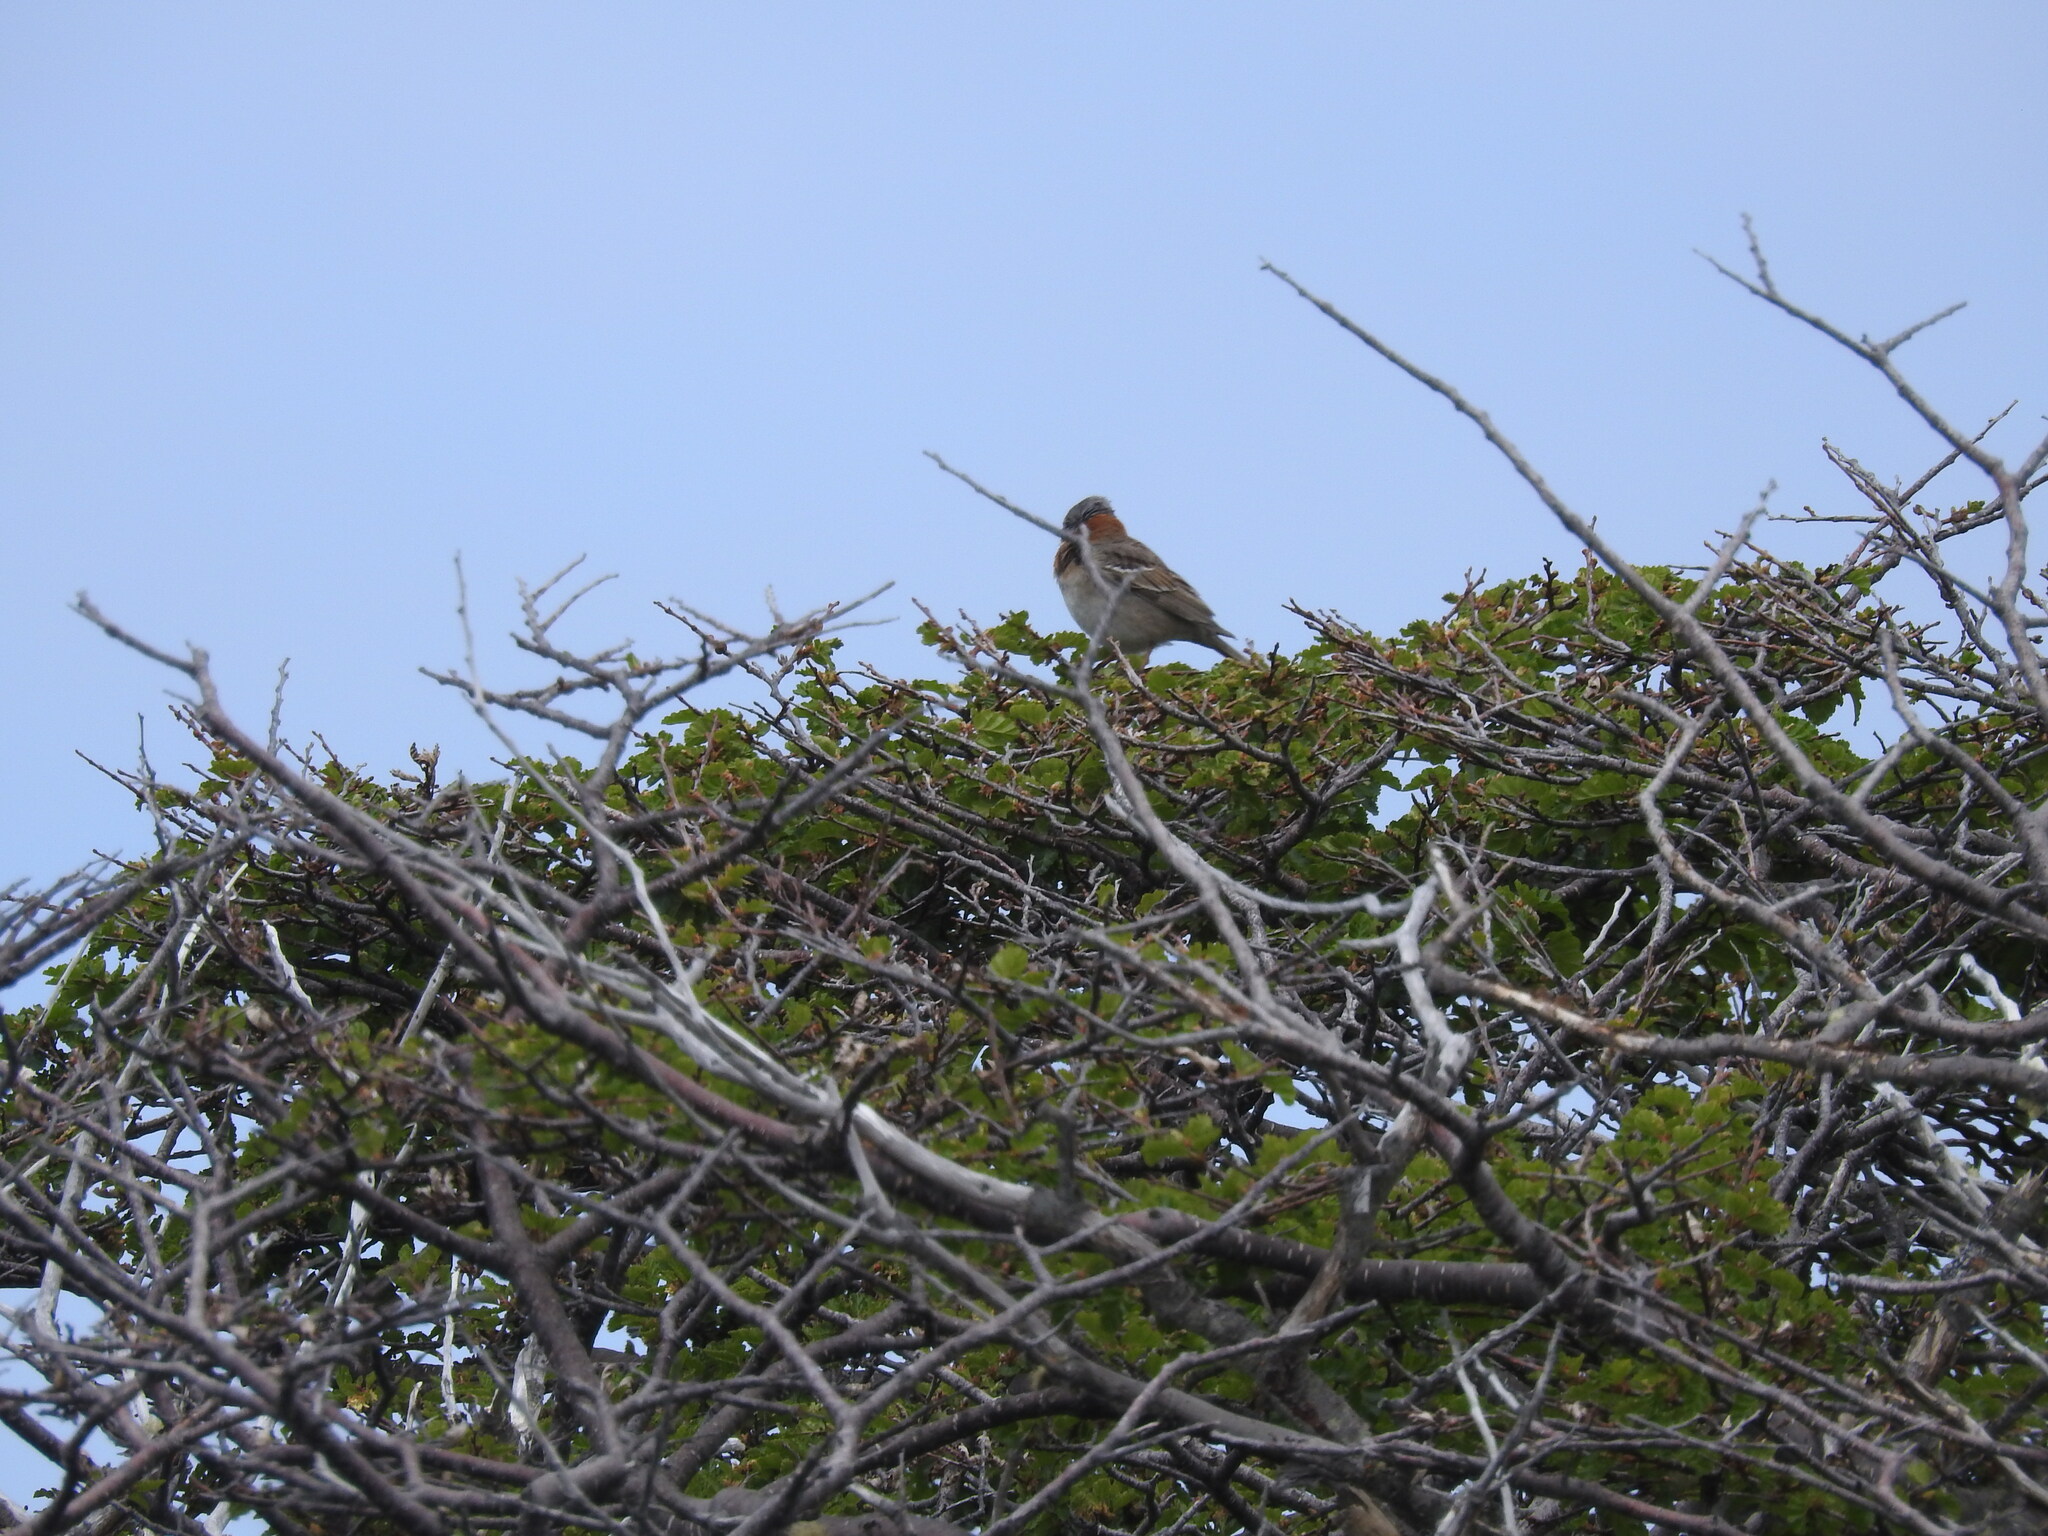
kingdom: Animalia
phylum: Chordata
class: Aves
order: Passeriformes
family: Passerellidae
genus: Zonotrichia
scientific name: Zonotrichia capensis
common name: Rufous-collared sparrow
